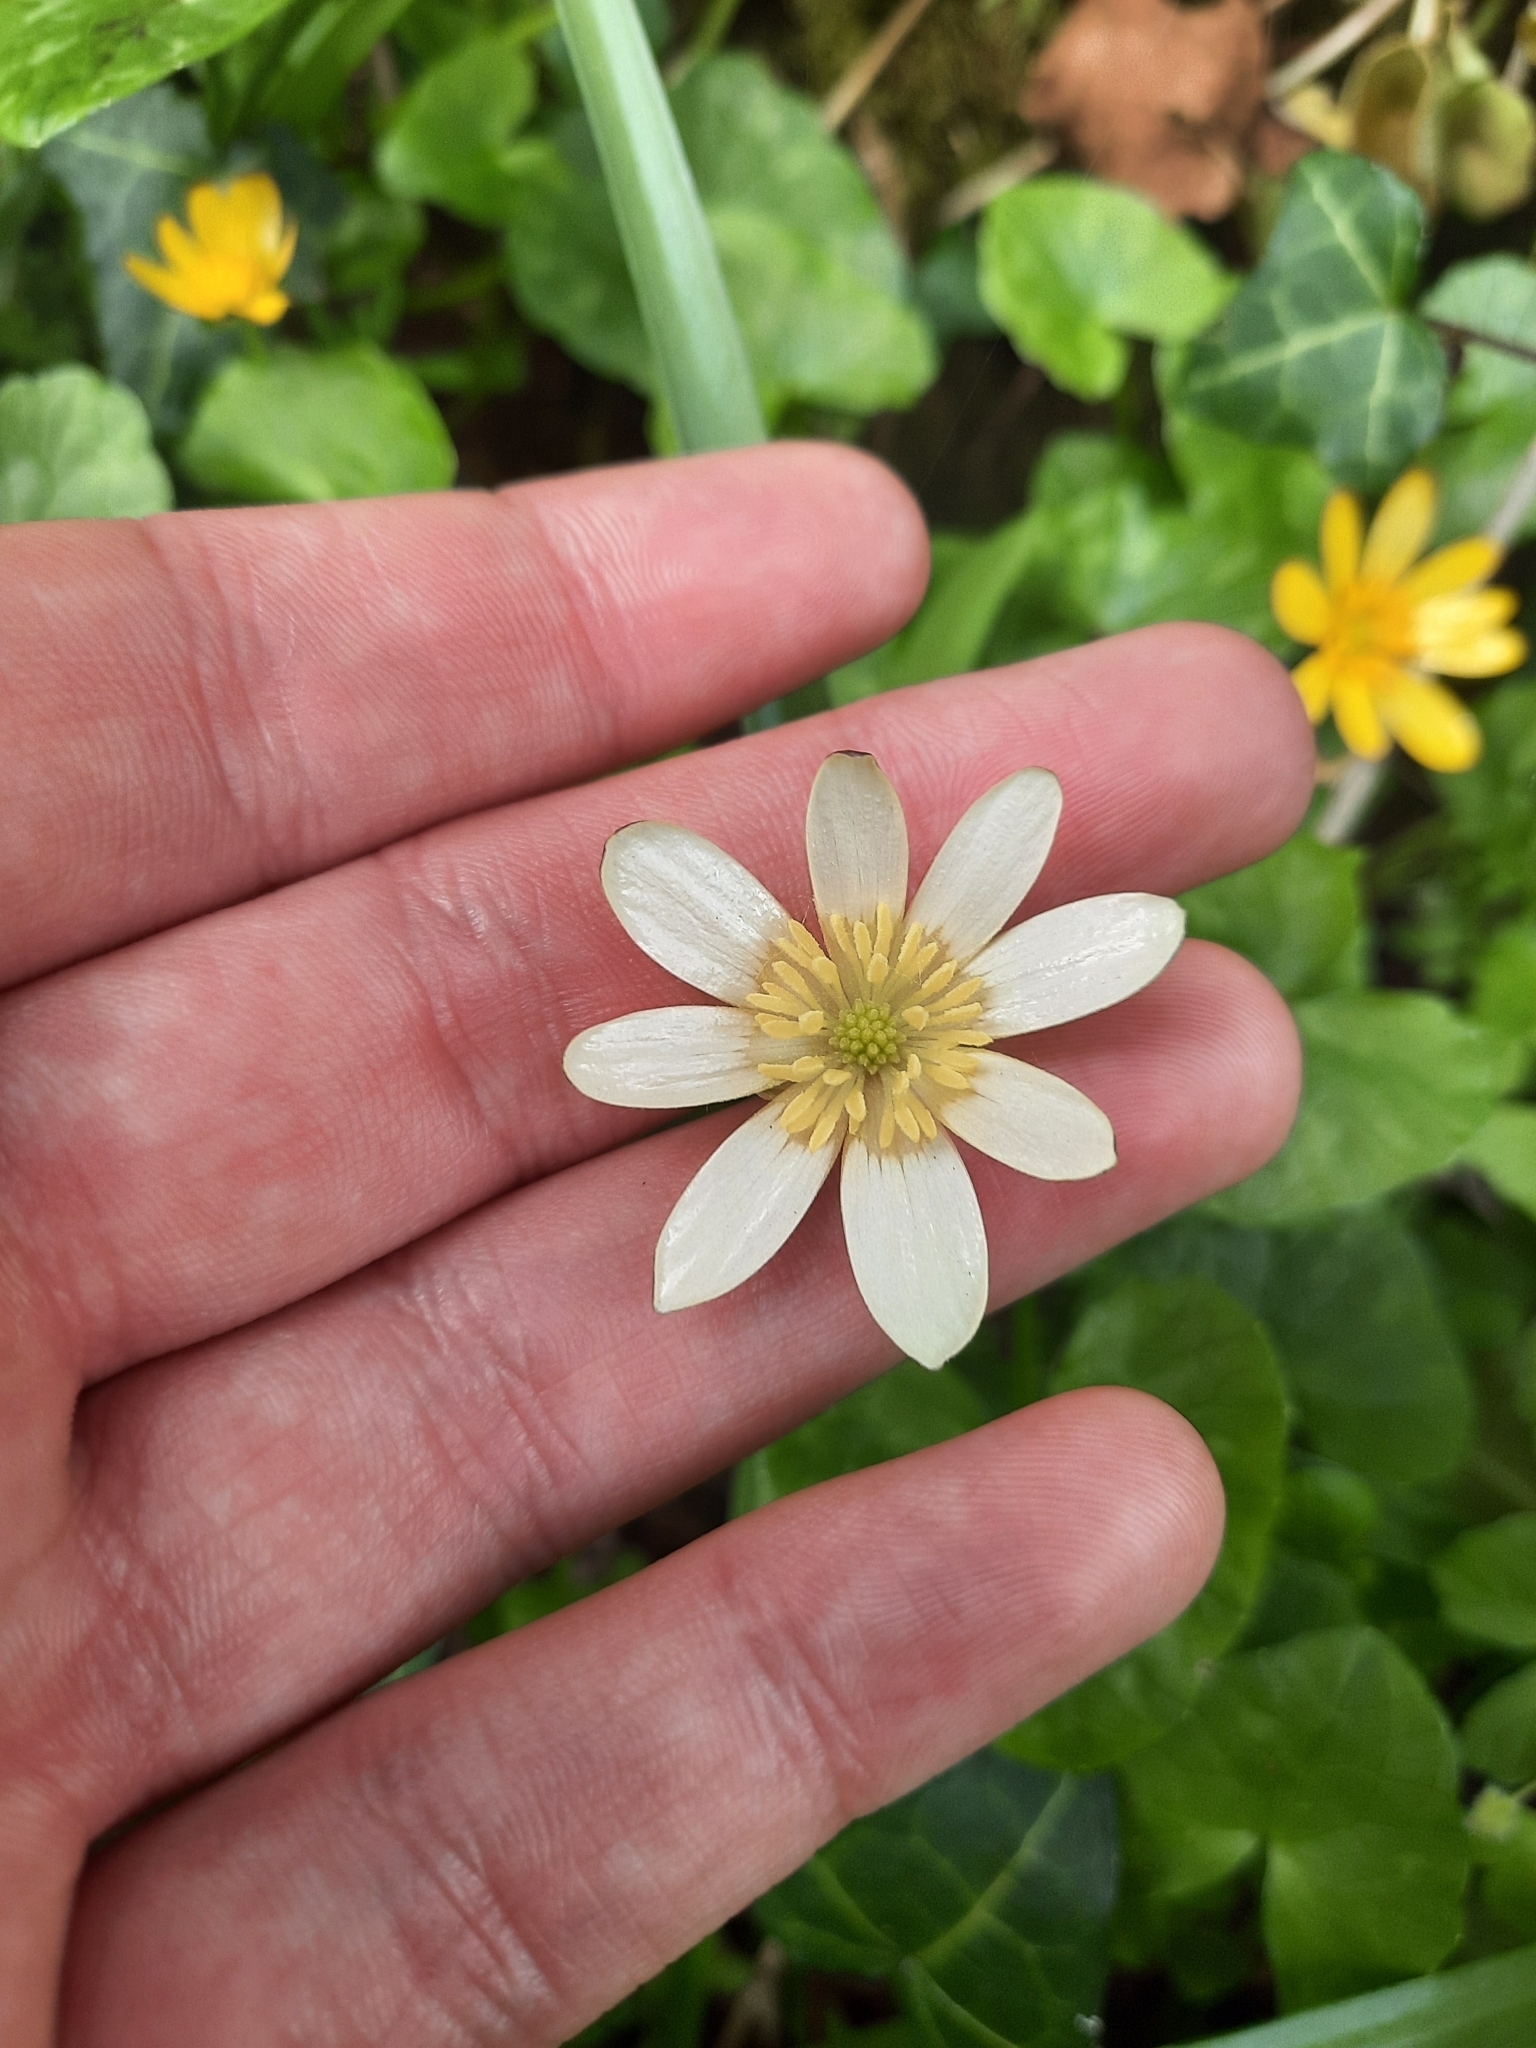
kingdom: Plantae
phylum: Tracheophyta
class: Magnoliopsida
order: Ranunculales
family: Ranunculaceae
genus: Ficaria
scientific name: Ficaria verna
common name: Lesser celandine
